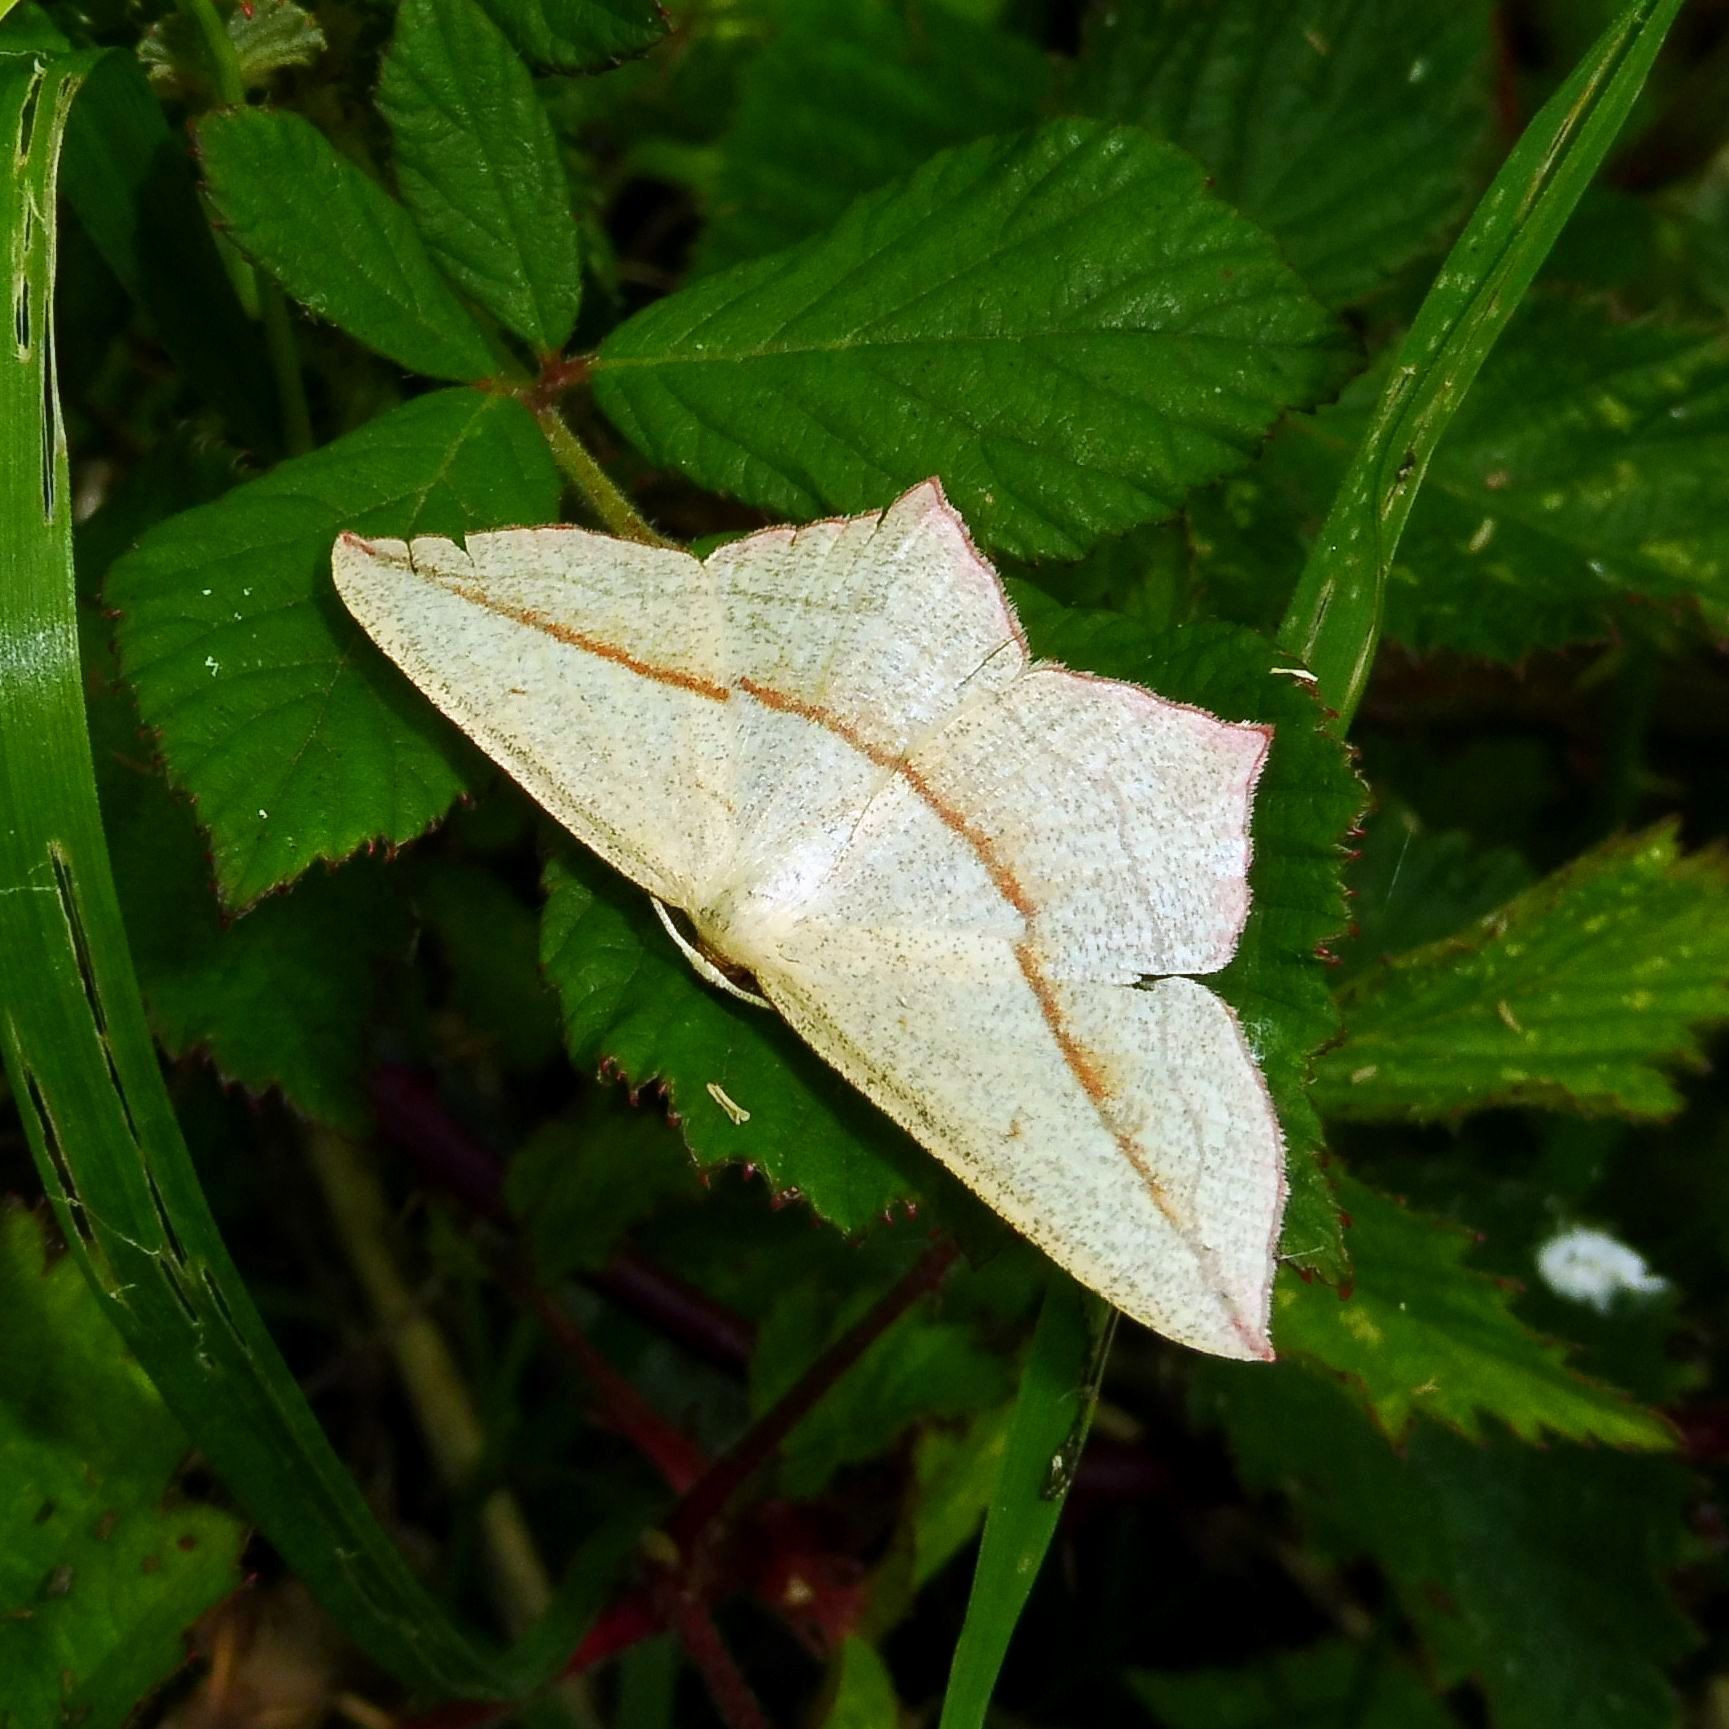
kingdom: Animalia
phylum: Arthropoda
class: Insecta
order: Lepidoptera
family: Geometridae
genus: Timandra
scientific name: Timandra comae
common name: Blood-vein
